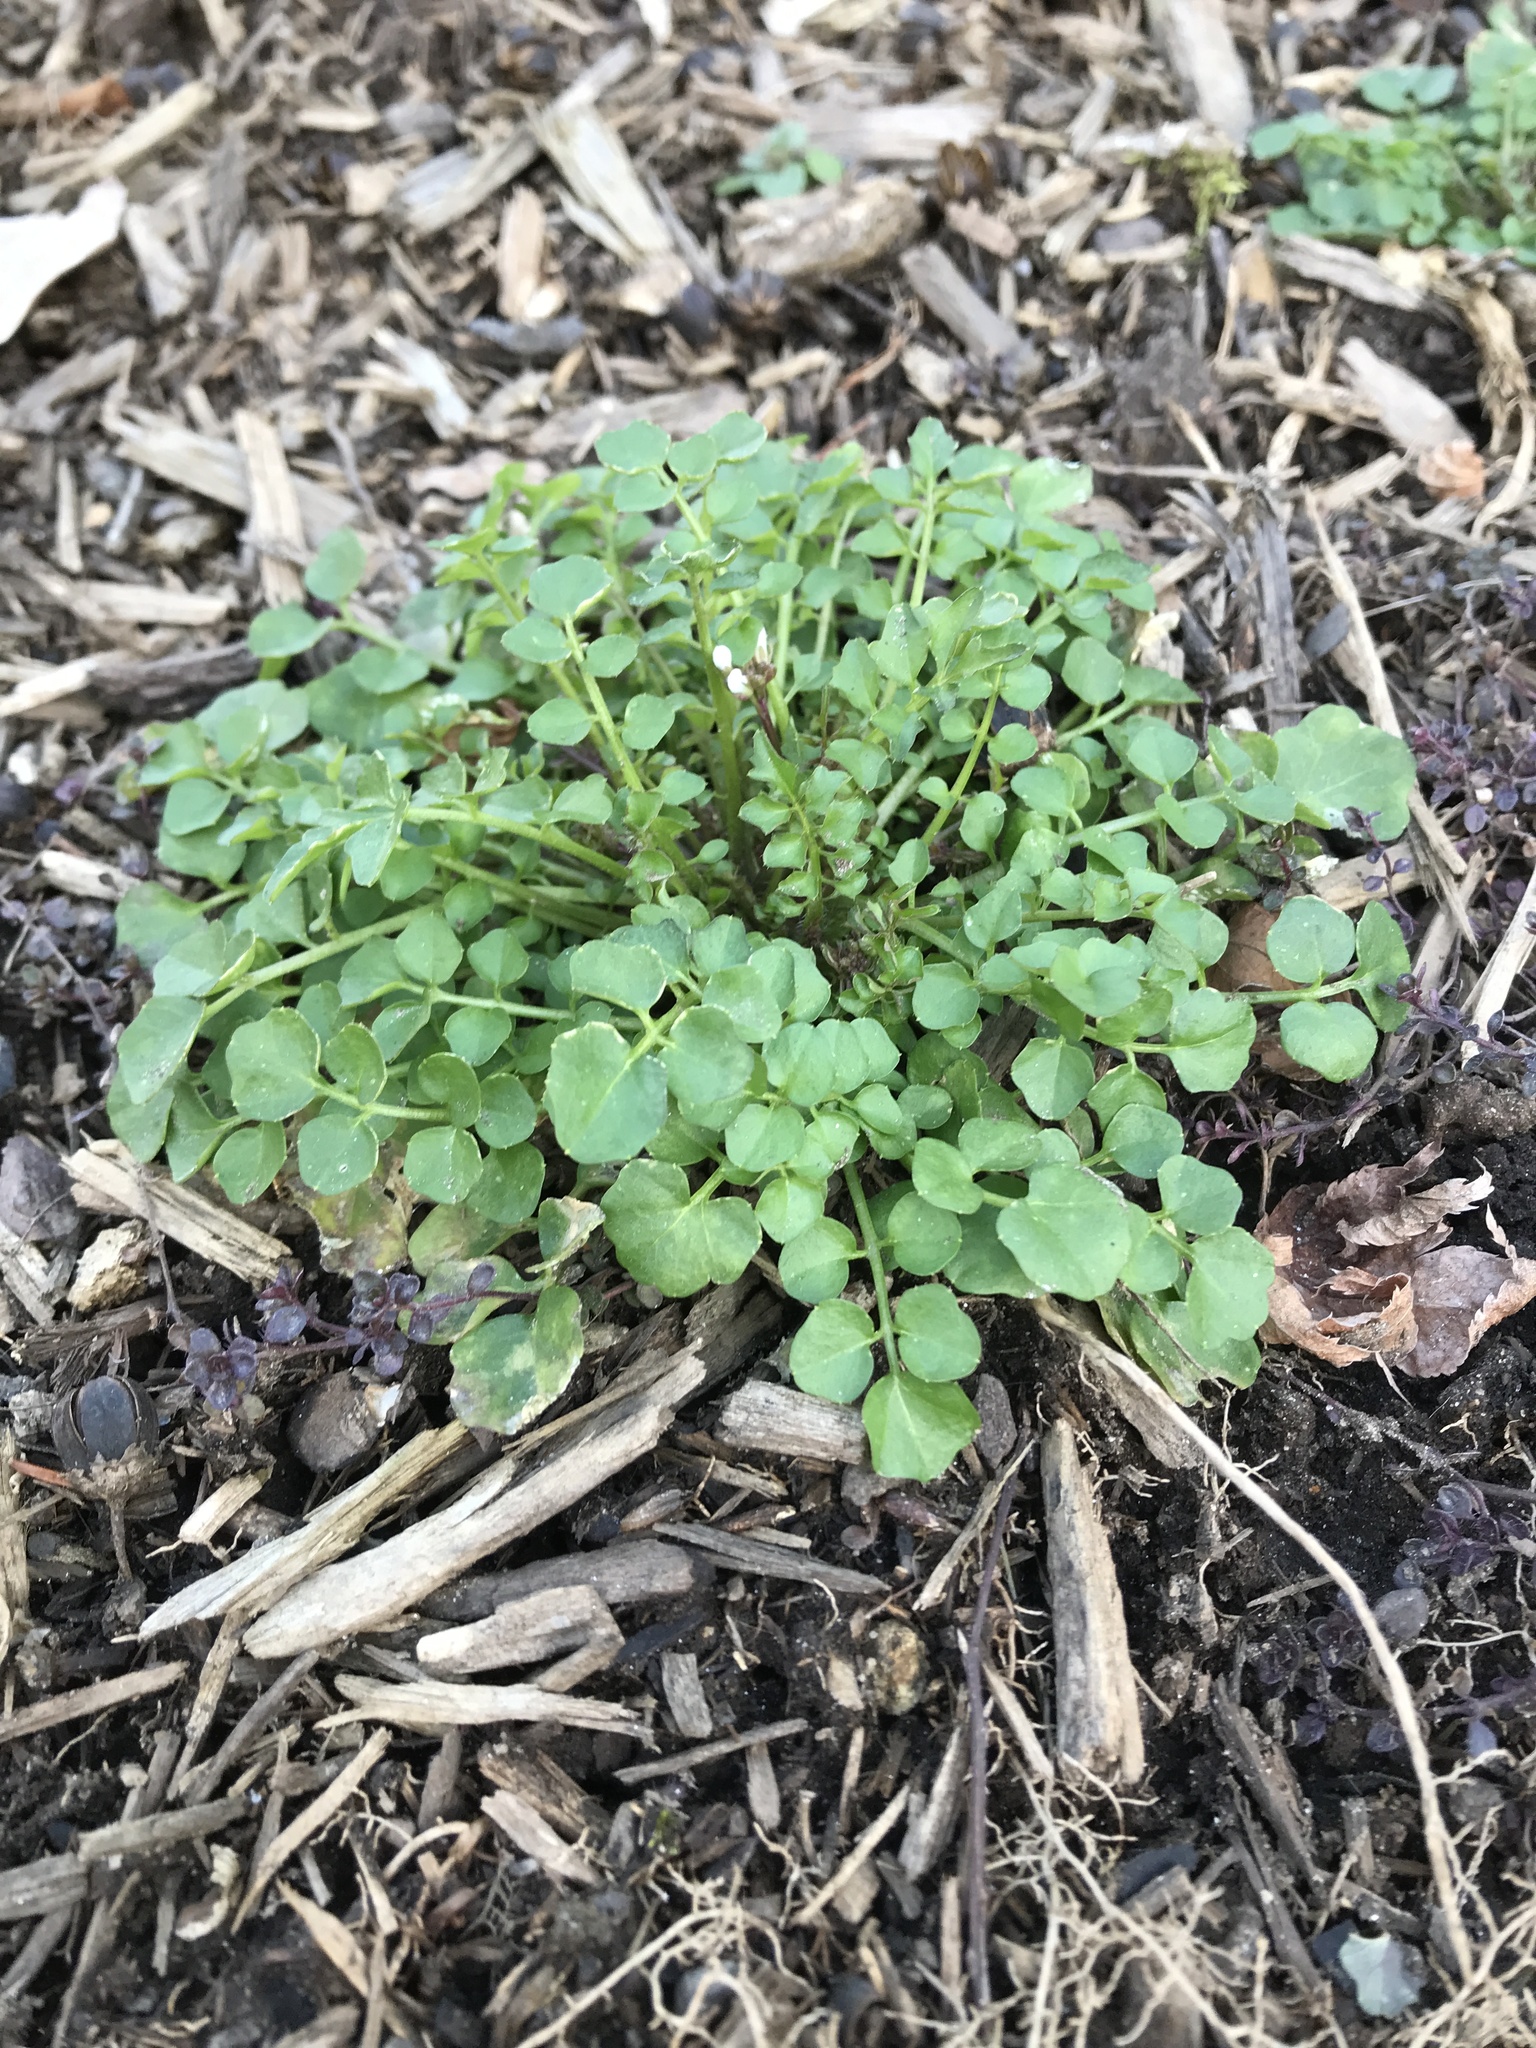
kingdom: Plantae
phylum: Tracheophyta
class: Magnoliopsida
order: Brassicales
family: Brassicaceae
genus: Cardamine
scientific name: Cardamine hirsuta
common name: Hairy bittercress
